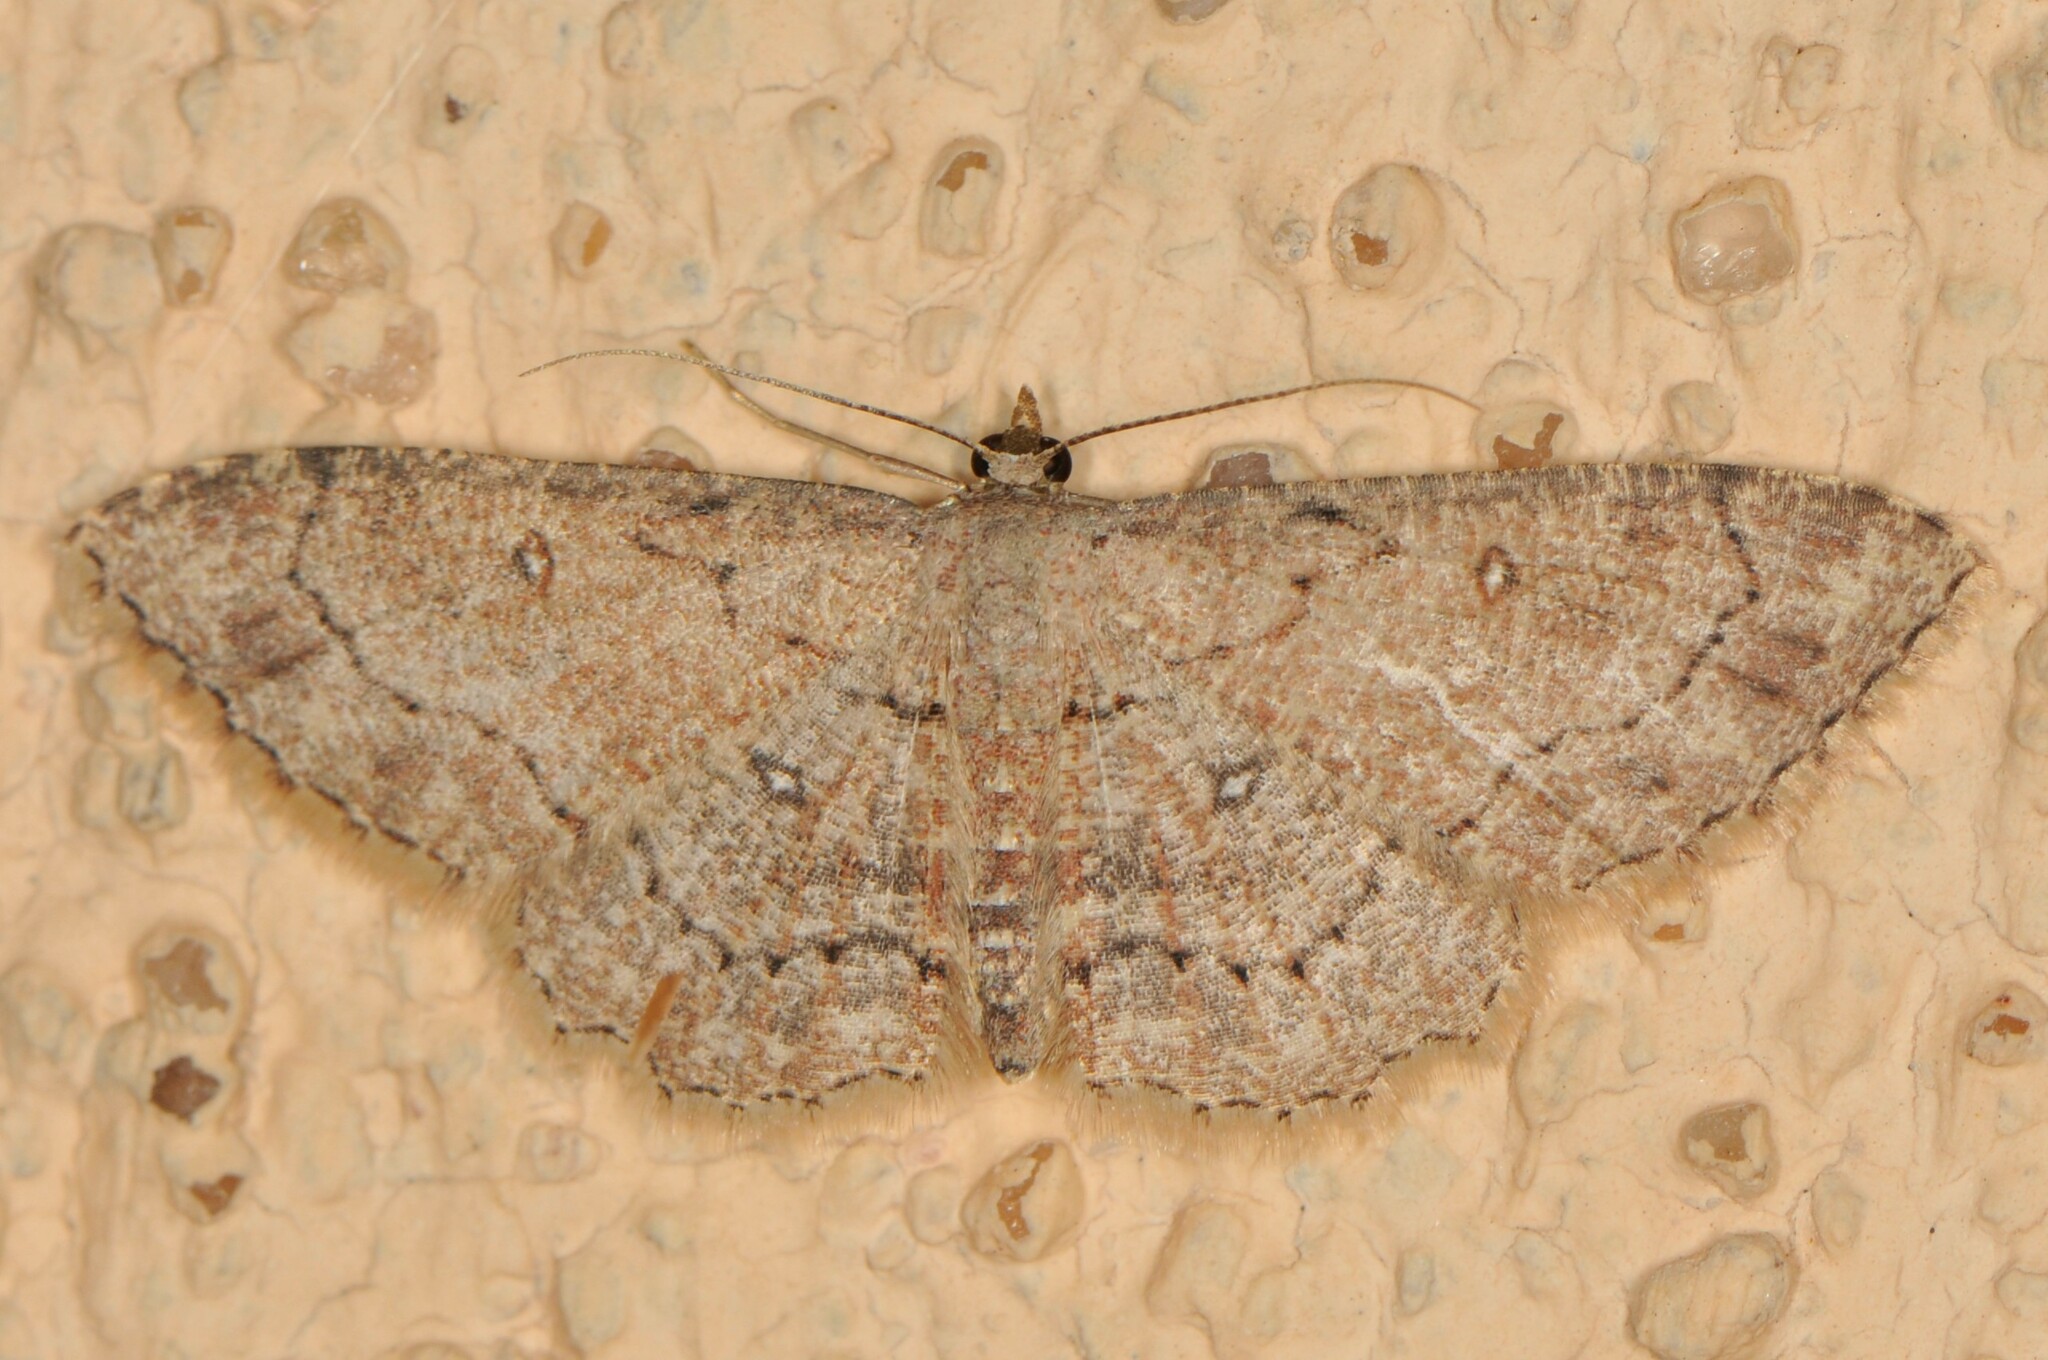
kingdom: Animalia
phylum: Arthropoda
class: Insecta
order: Lepidoptera
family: Geometridae
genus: Cyclophora
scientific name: Cyclophora nanaria
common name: Cankerworm
